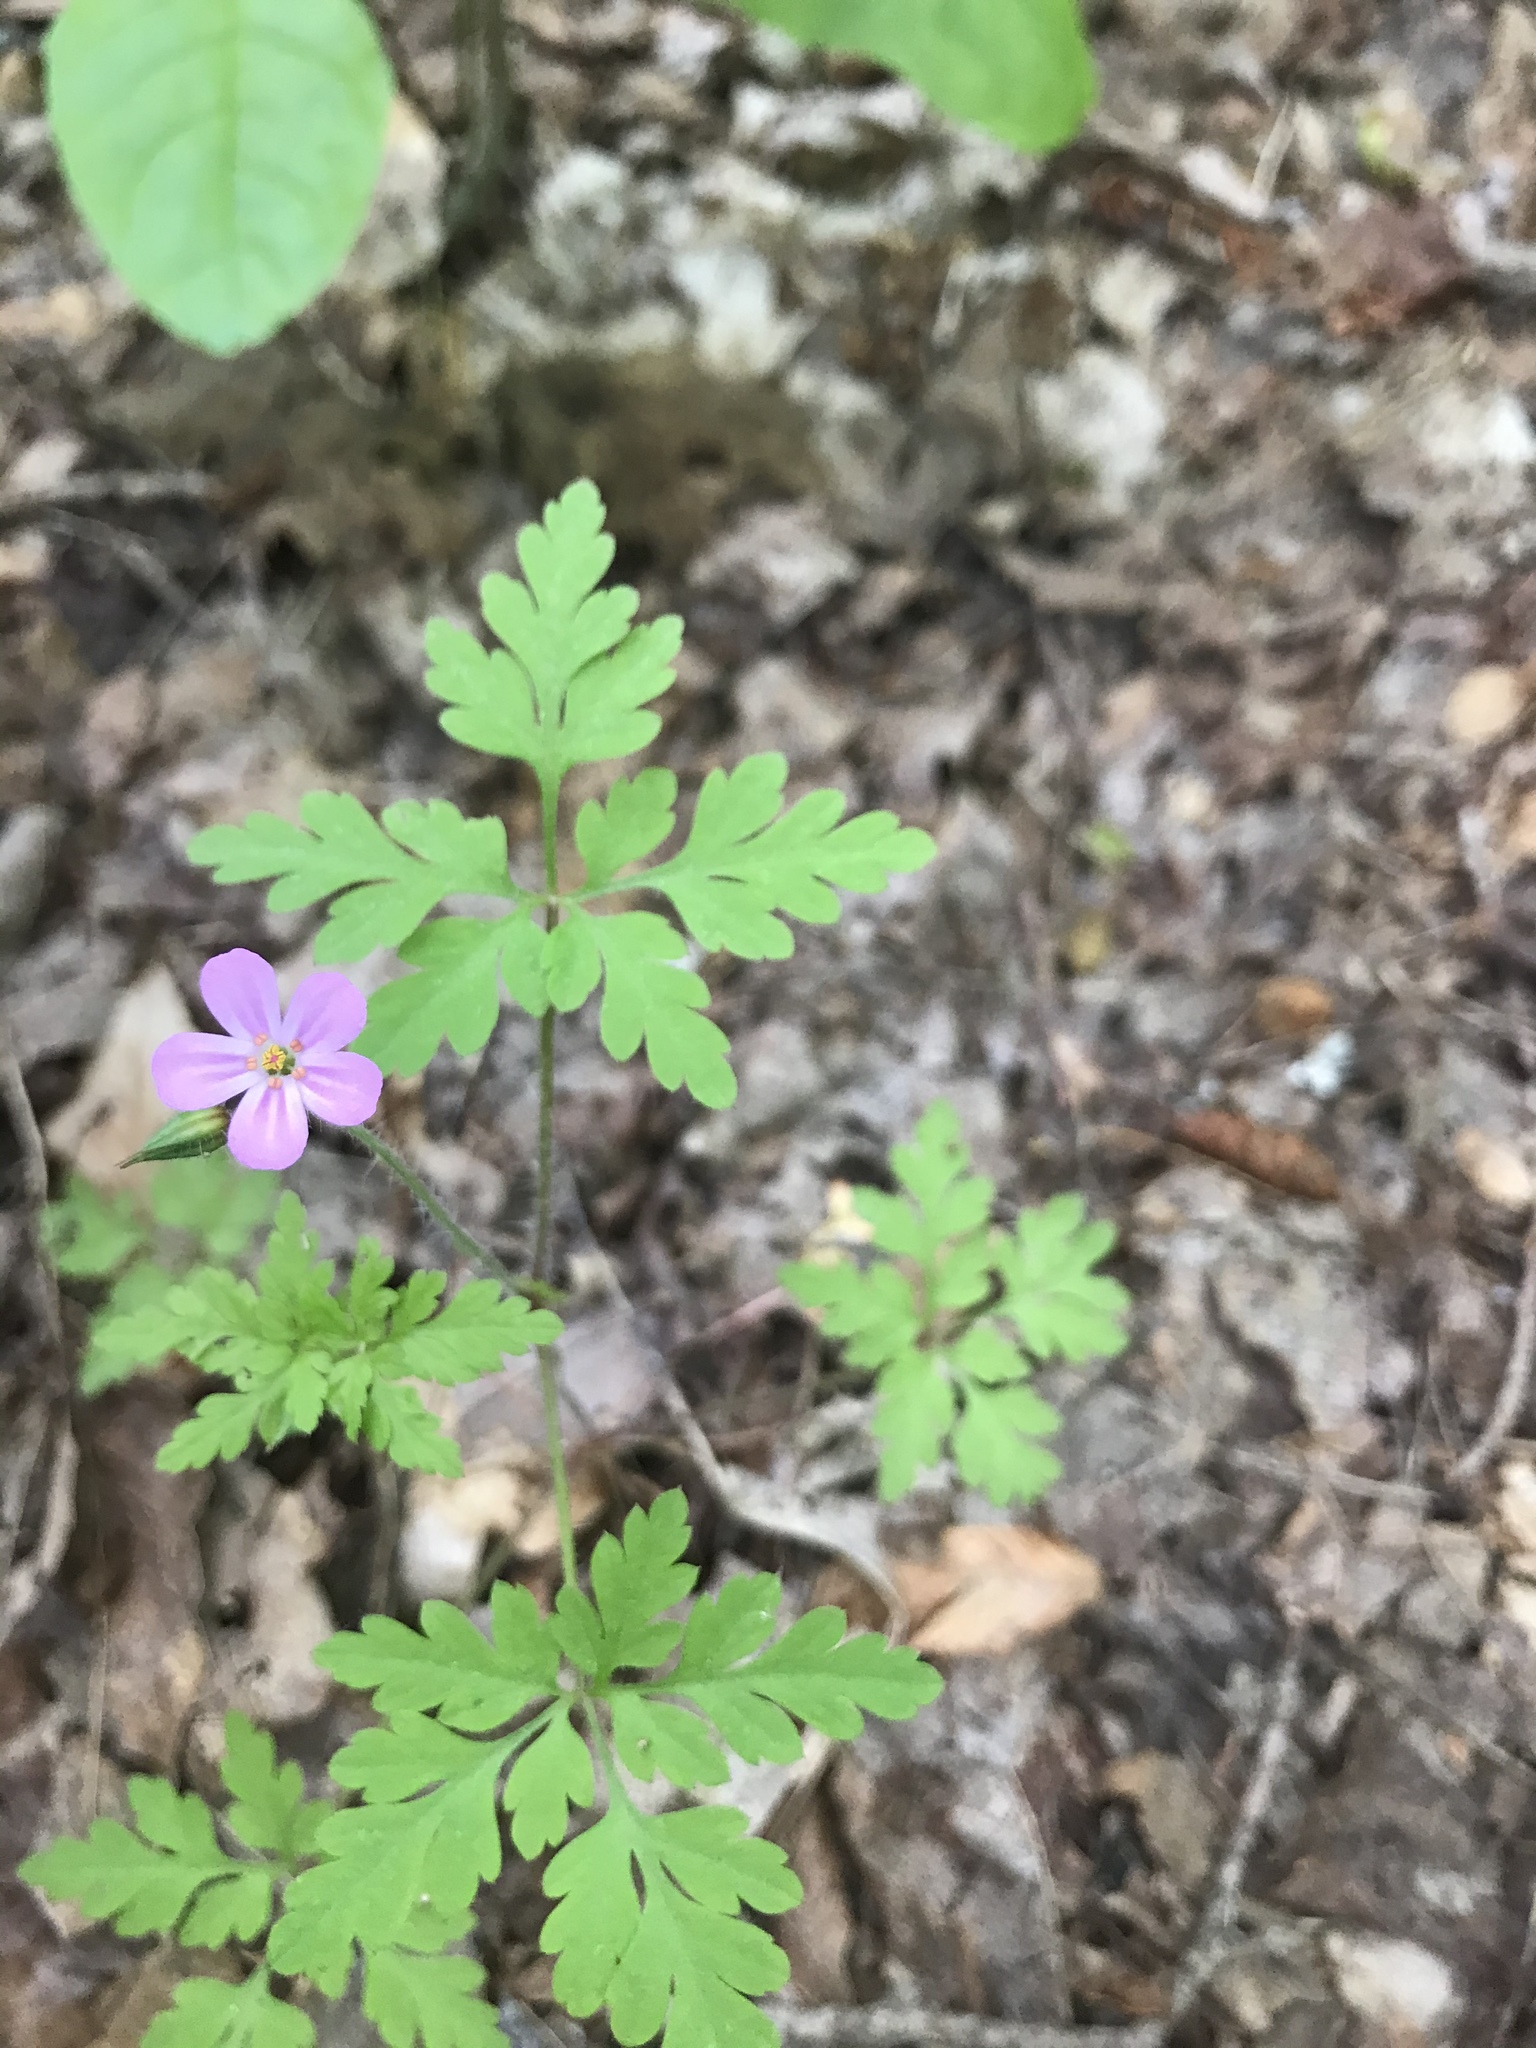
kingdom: Plantae
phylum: Tracheophyta
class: Magnoliopsida
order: Geraniales
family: Geraniaceae
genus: Geranium
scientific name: Geranium robertianum
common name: Herb-robert
